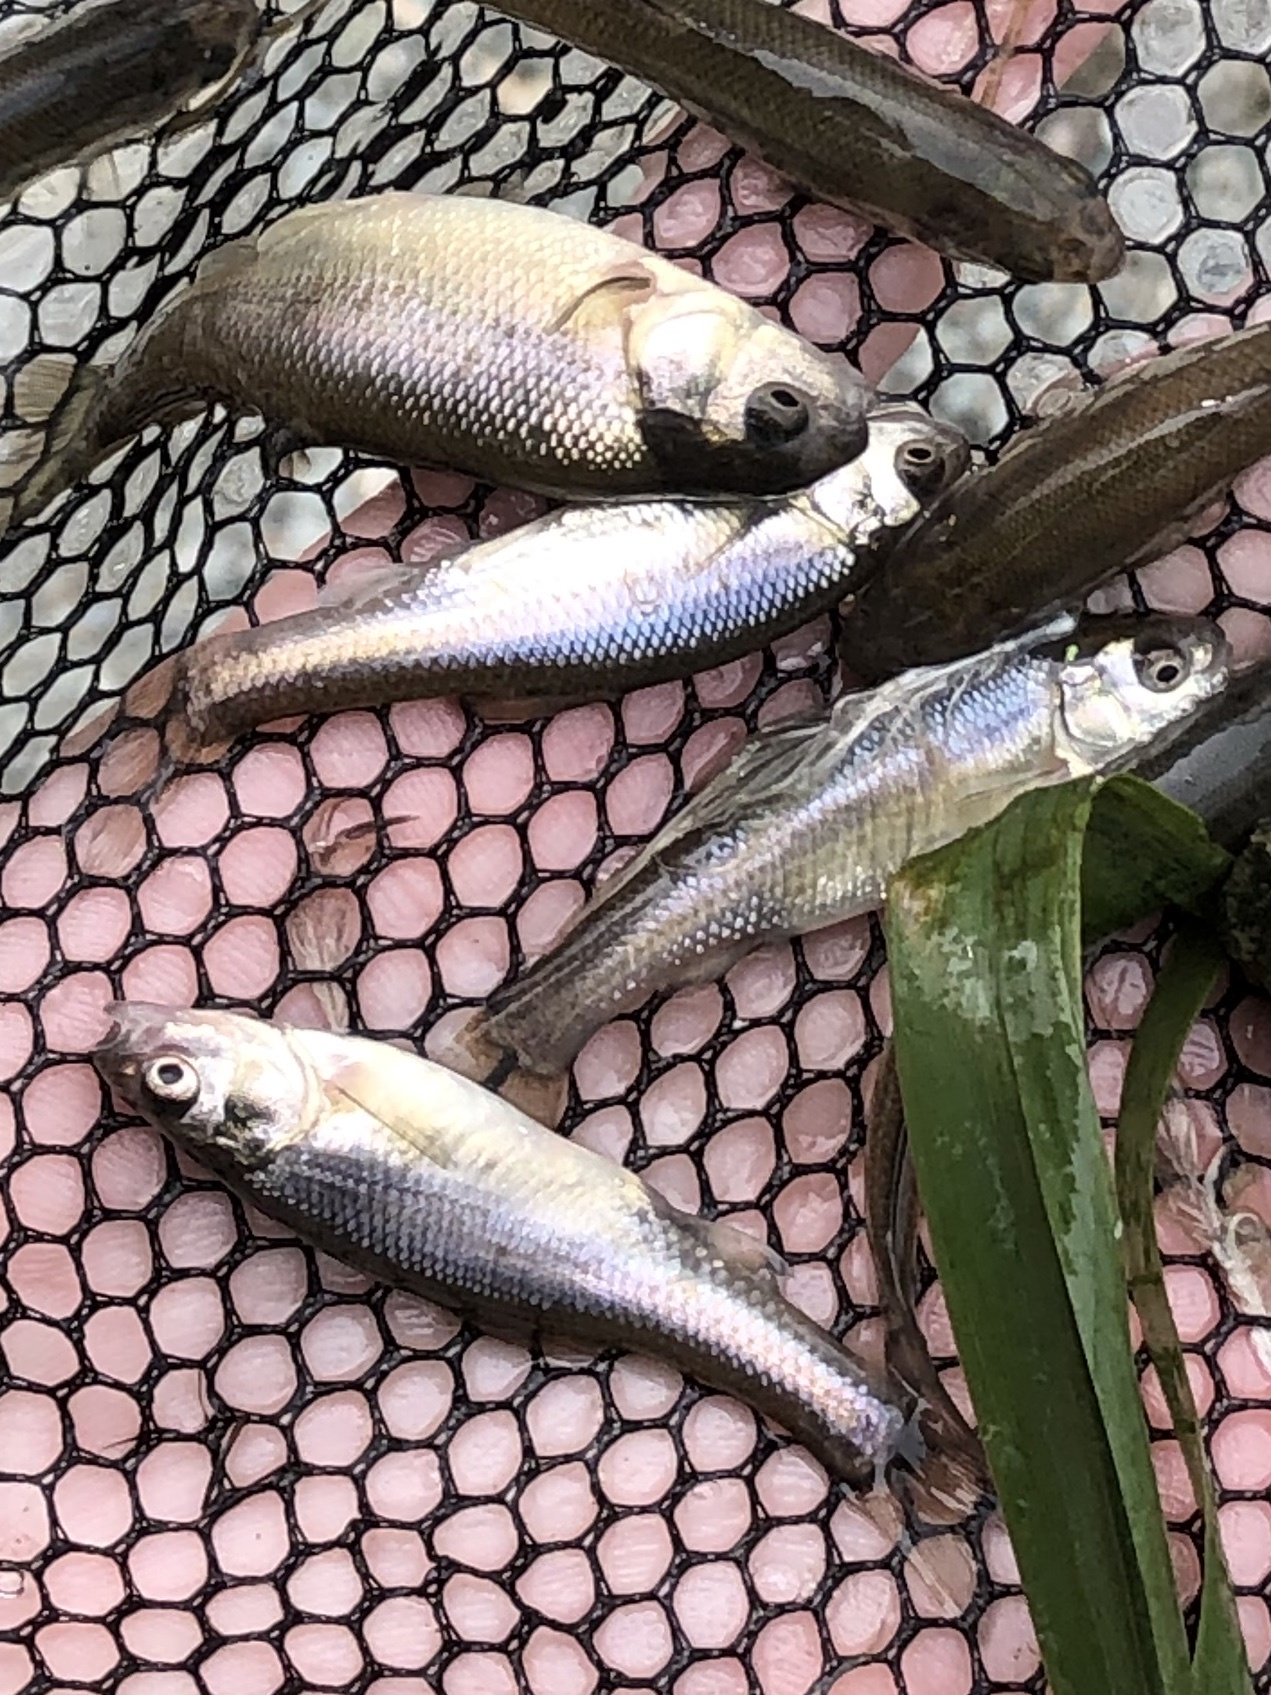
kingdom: Animalia
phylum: Chordata
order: Cypriniformes
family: Cyprinidae
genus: Pimephales
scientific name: Pimephales promelas
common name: Fathead minnow
